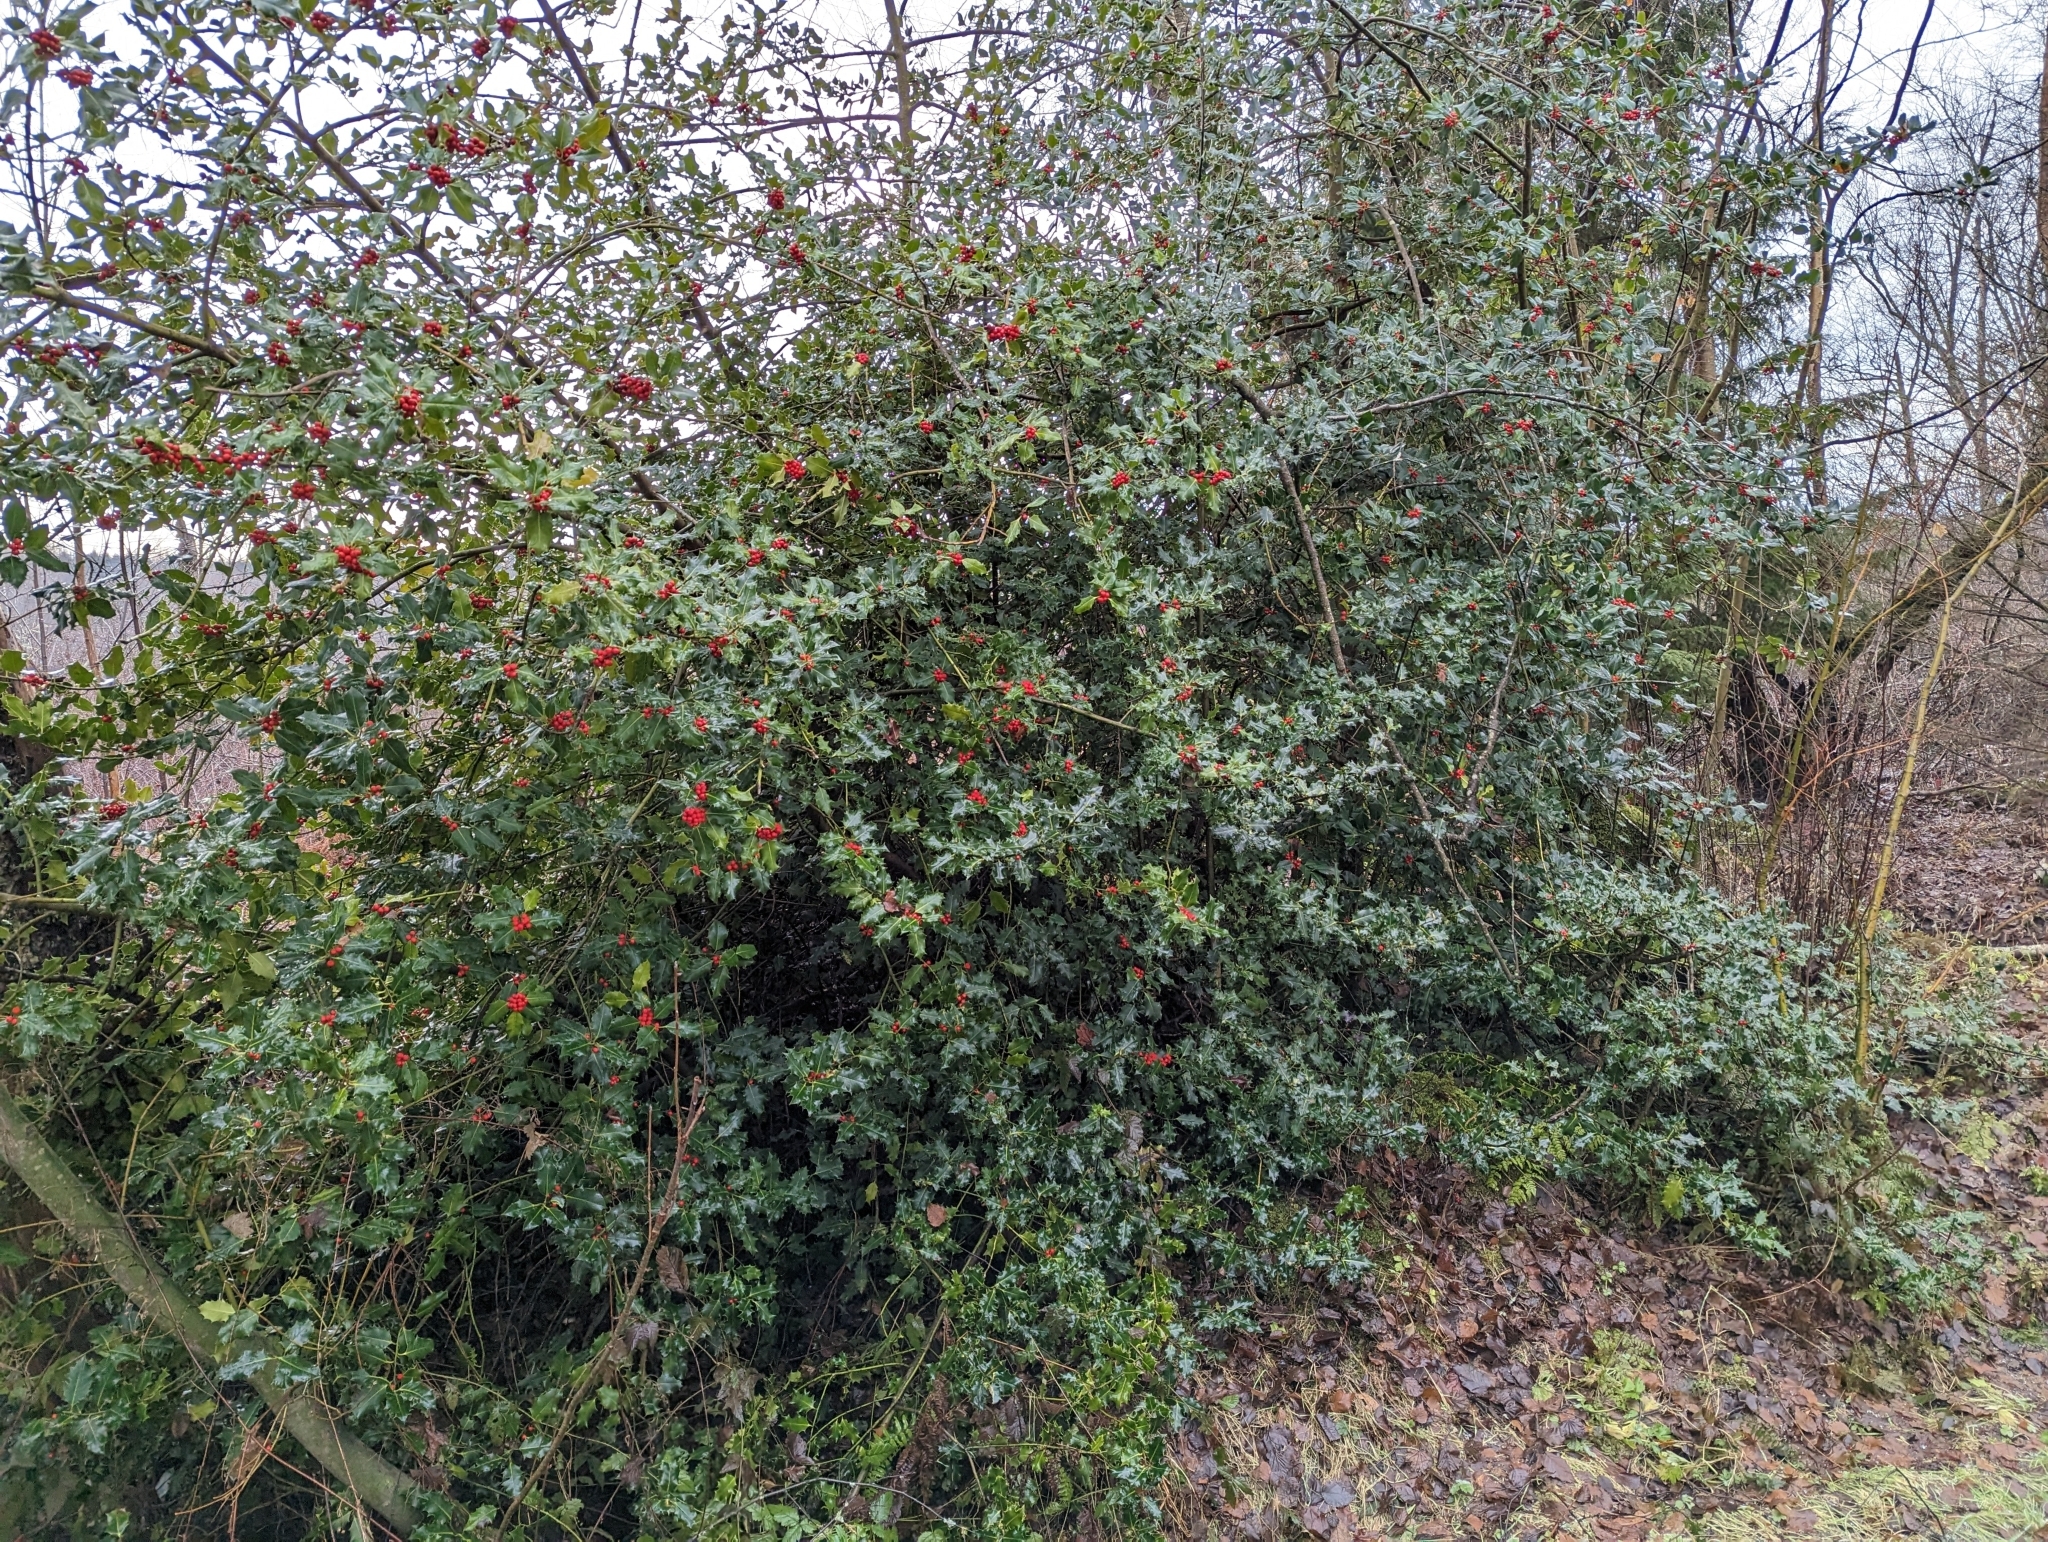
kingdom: Plantae
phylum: Tracheophyta
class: Magnoliopsida
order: Aquifoliales
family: Aquifoliaceae
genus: Ilex
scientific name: Ilex aquifolium
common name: English holly
